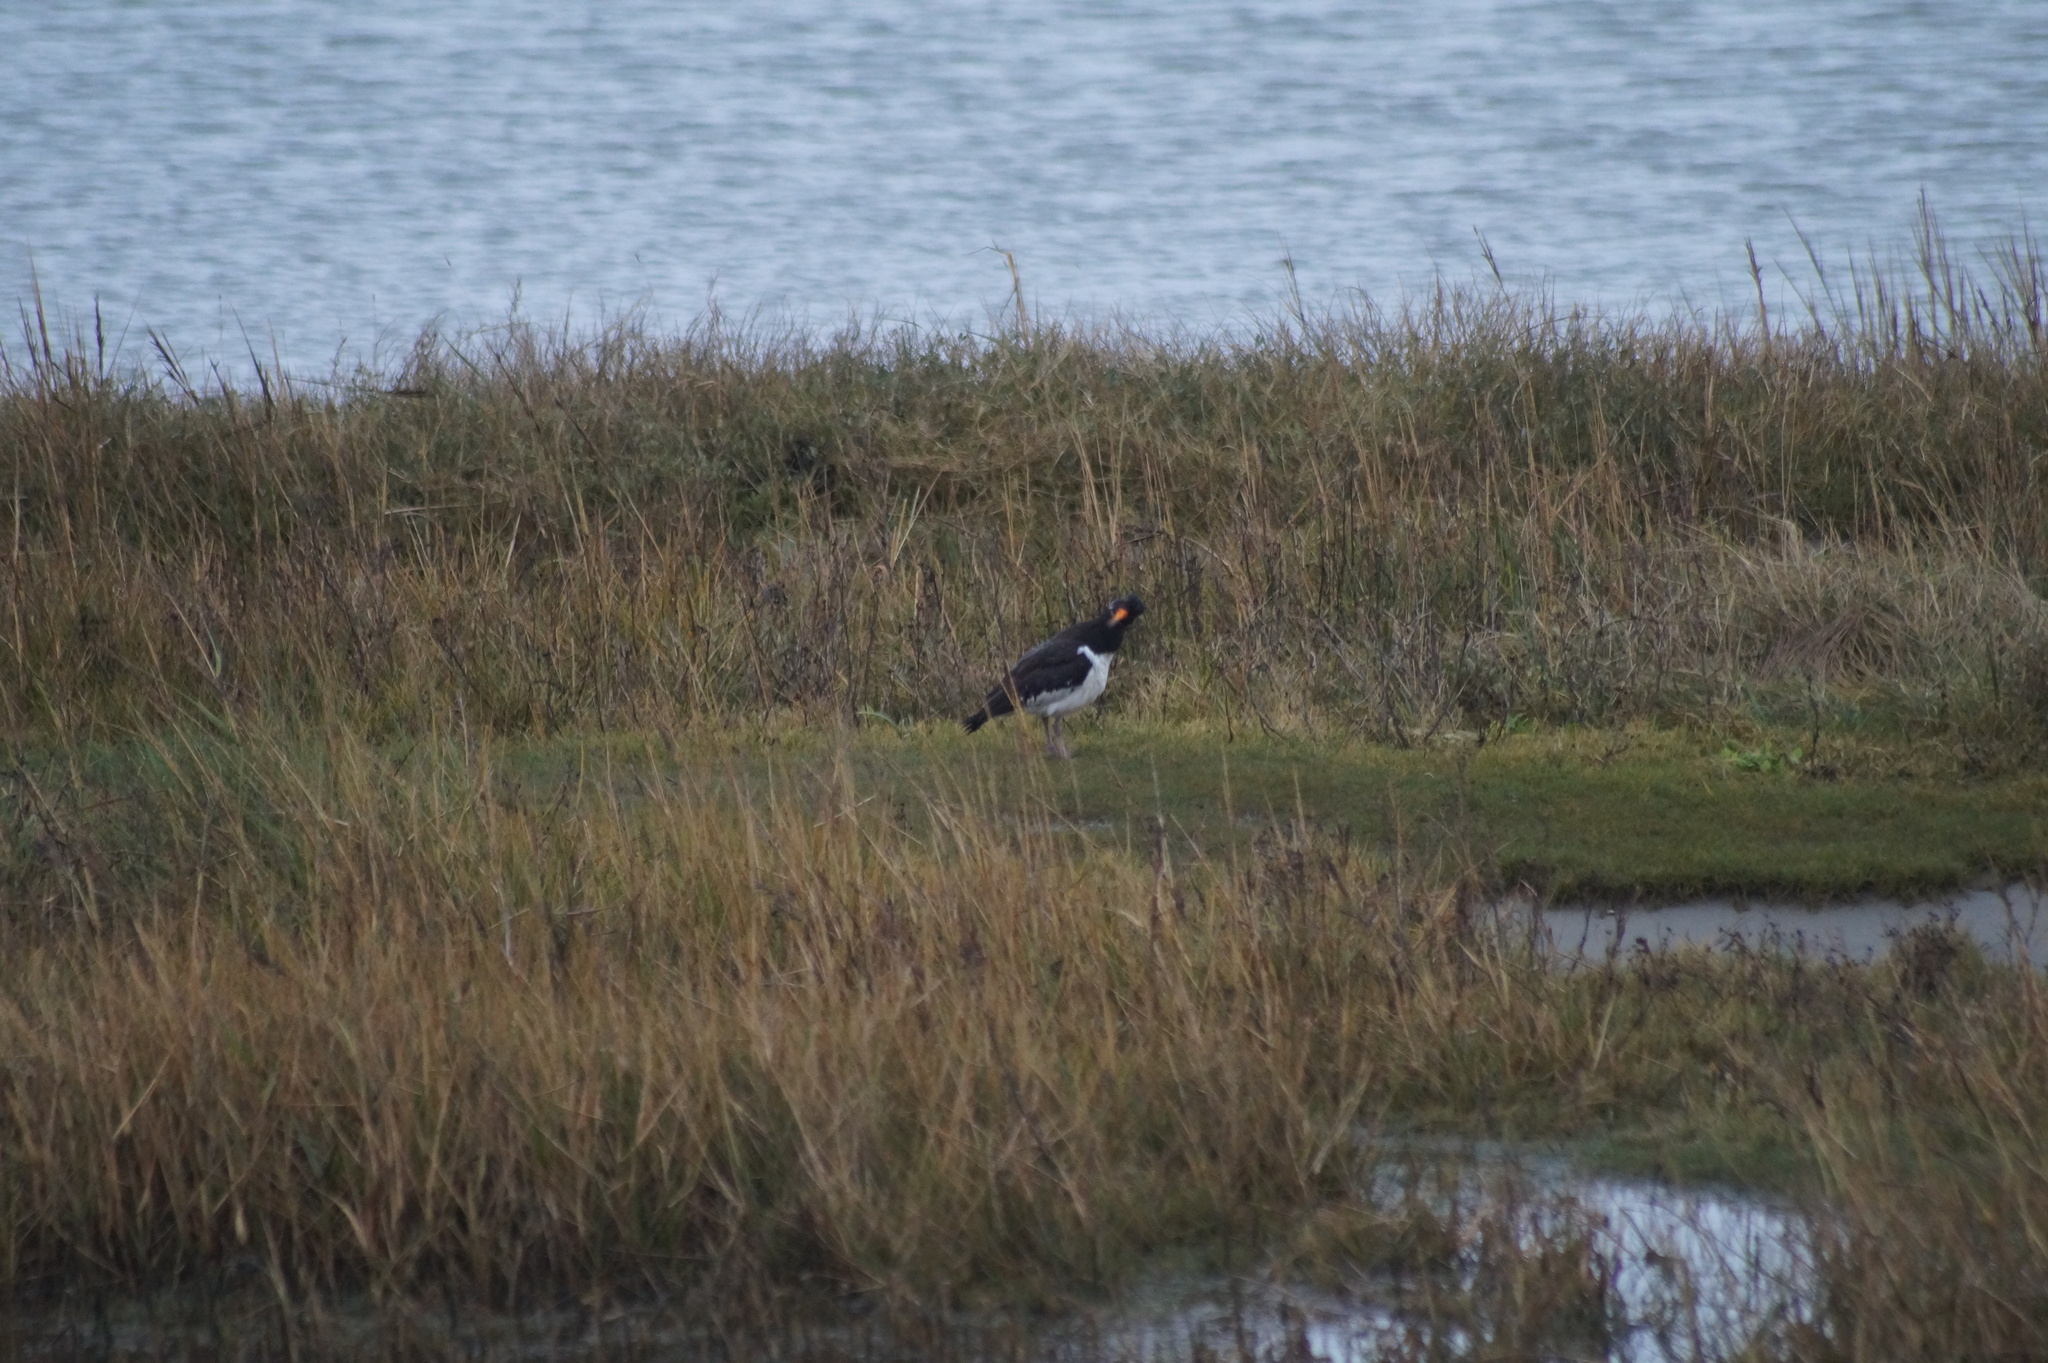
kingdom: Animalia
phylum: Chordata
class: Aves
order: Charadriiformes
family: Haematopodidae
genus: Haematopus
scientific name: Haematopus ostralegus
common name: Eurasian oystercatcher
